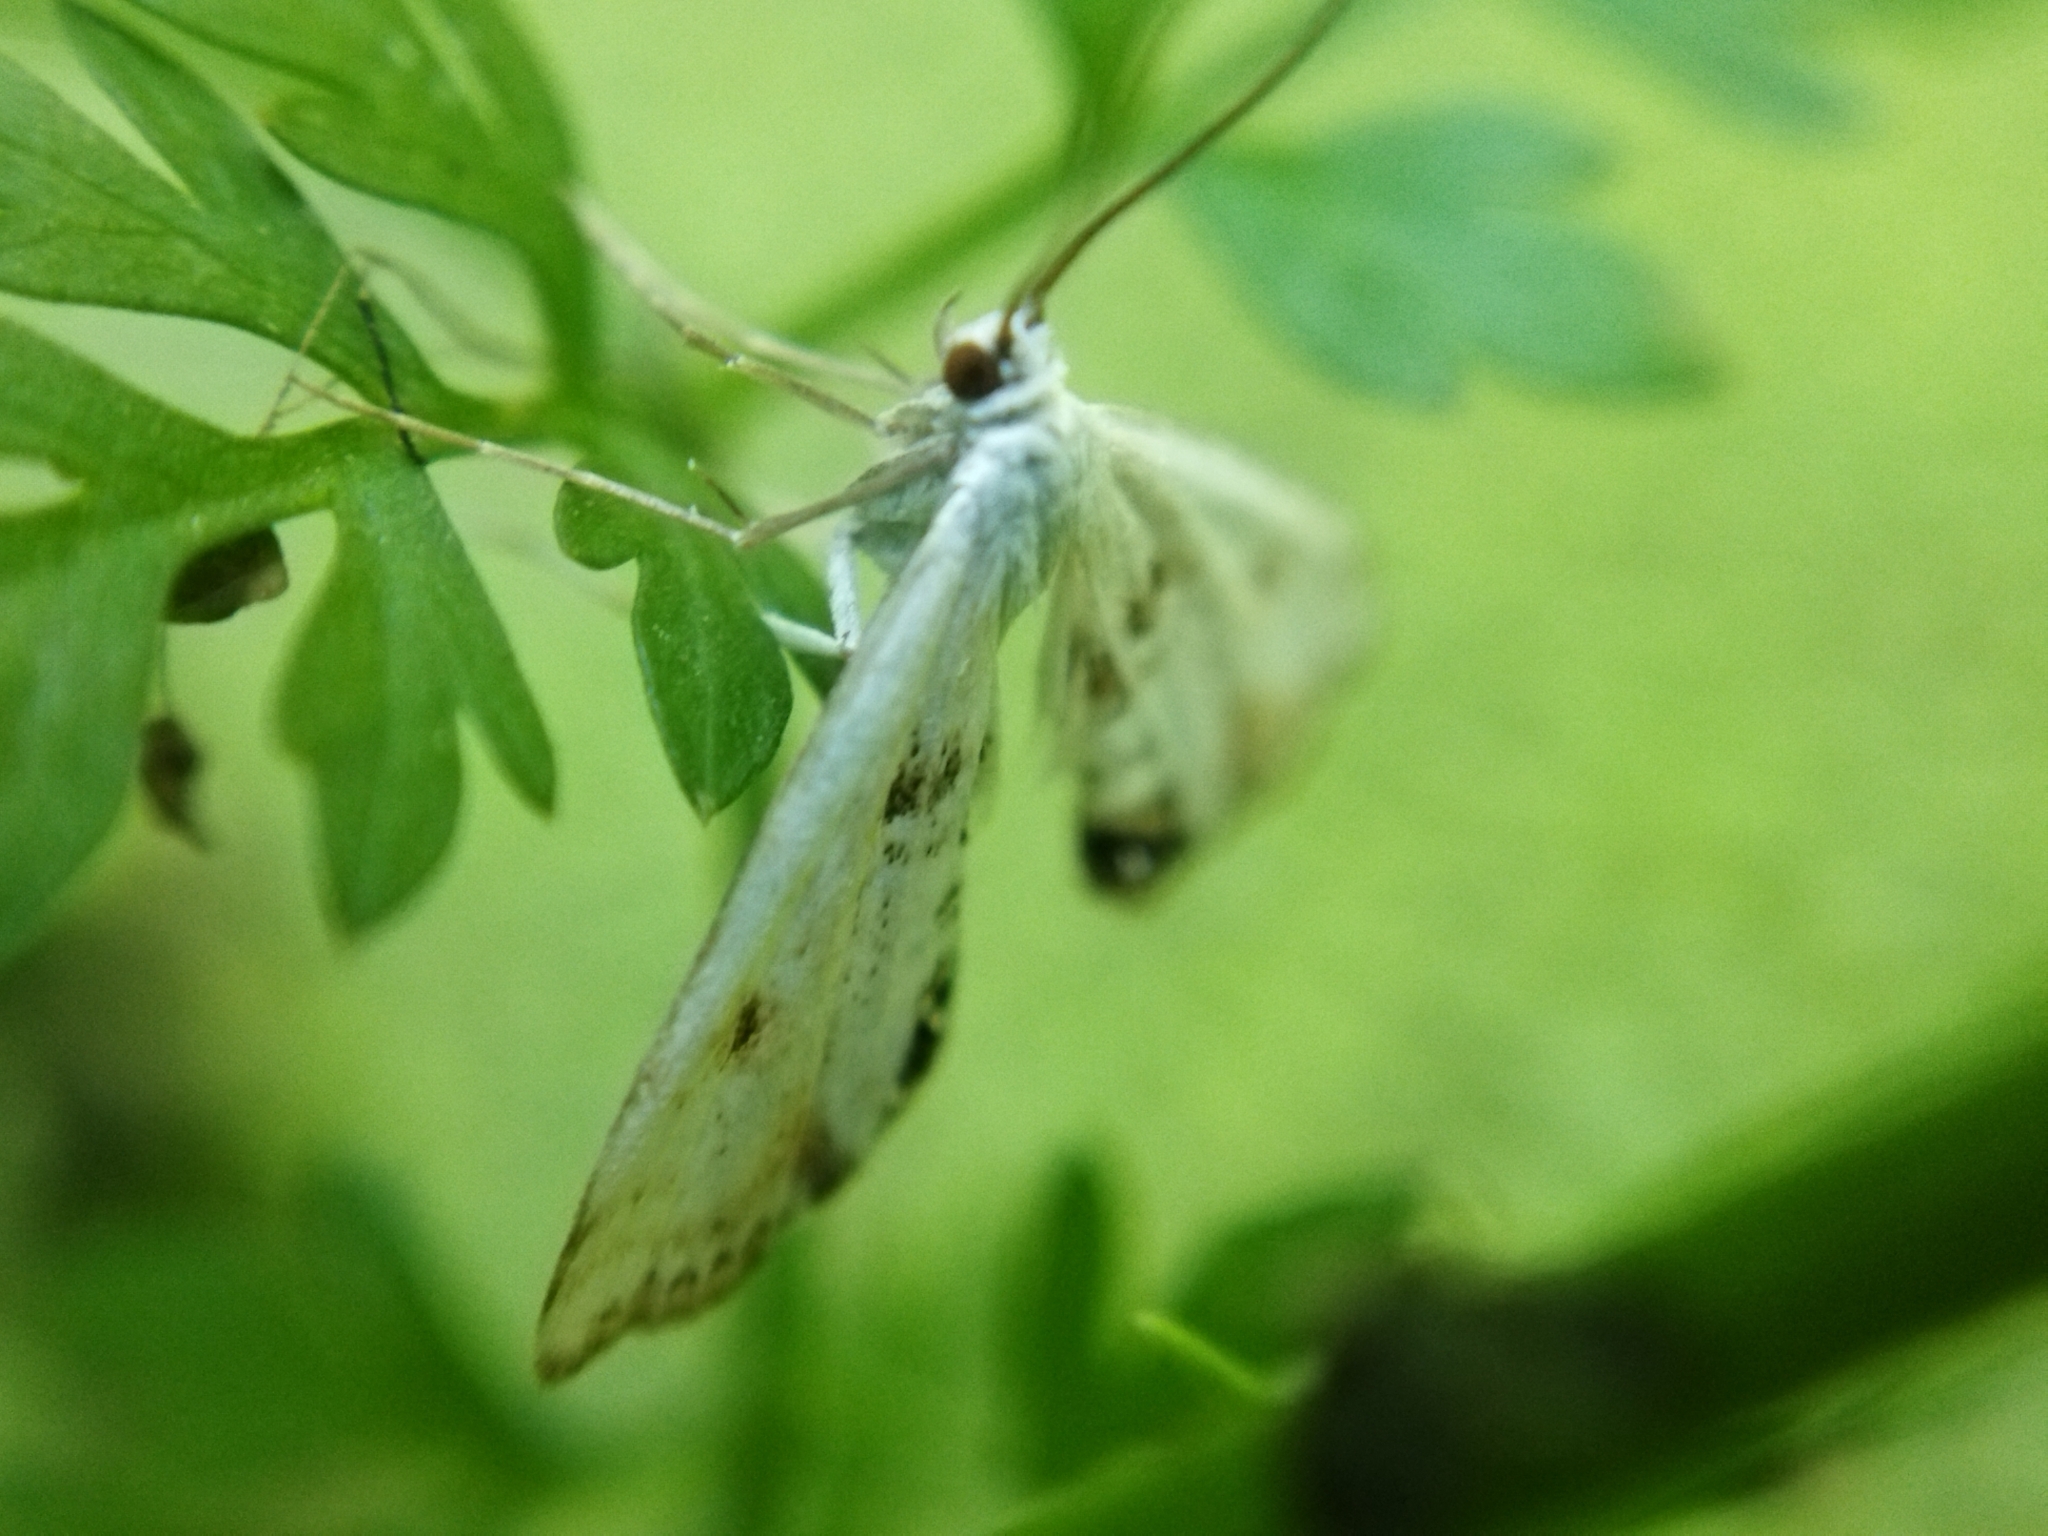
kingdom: Animalia
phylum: Arthropoda
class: Insecta
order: Lepidoptera
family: Crambidae
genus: Cataclysta
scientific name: Cataclysta lemnata
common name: Small china-mark
